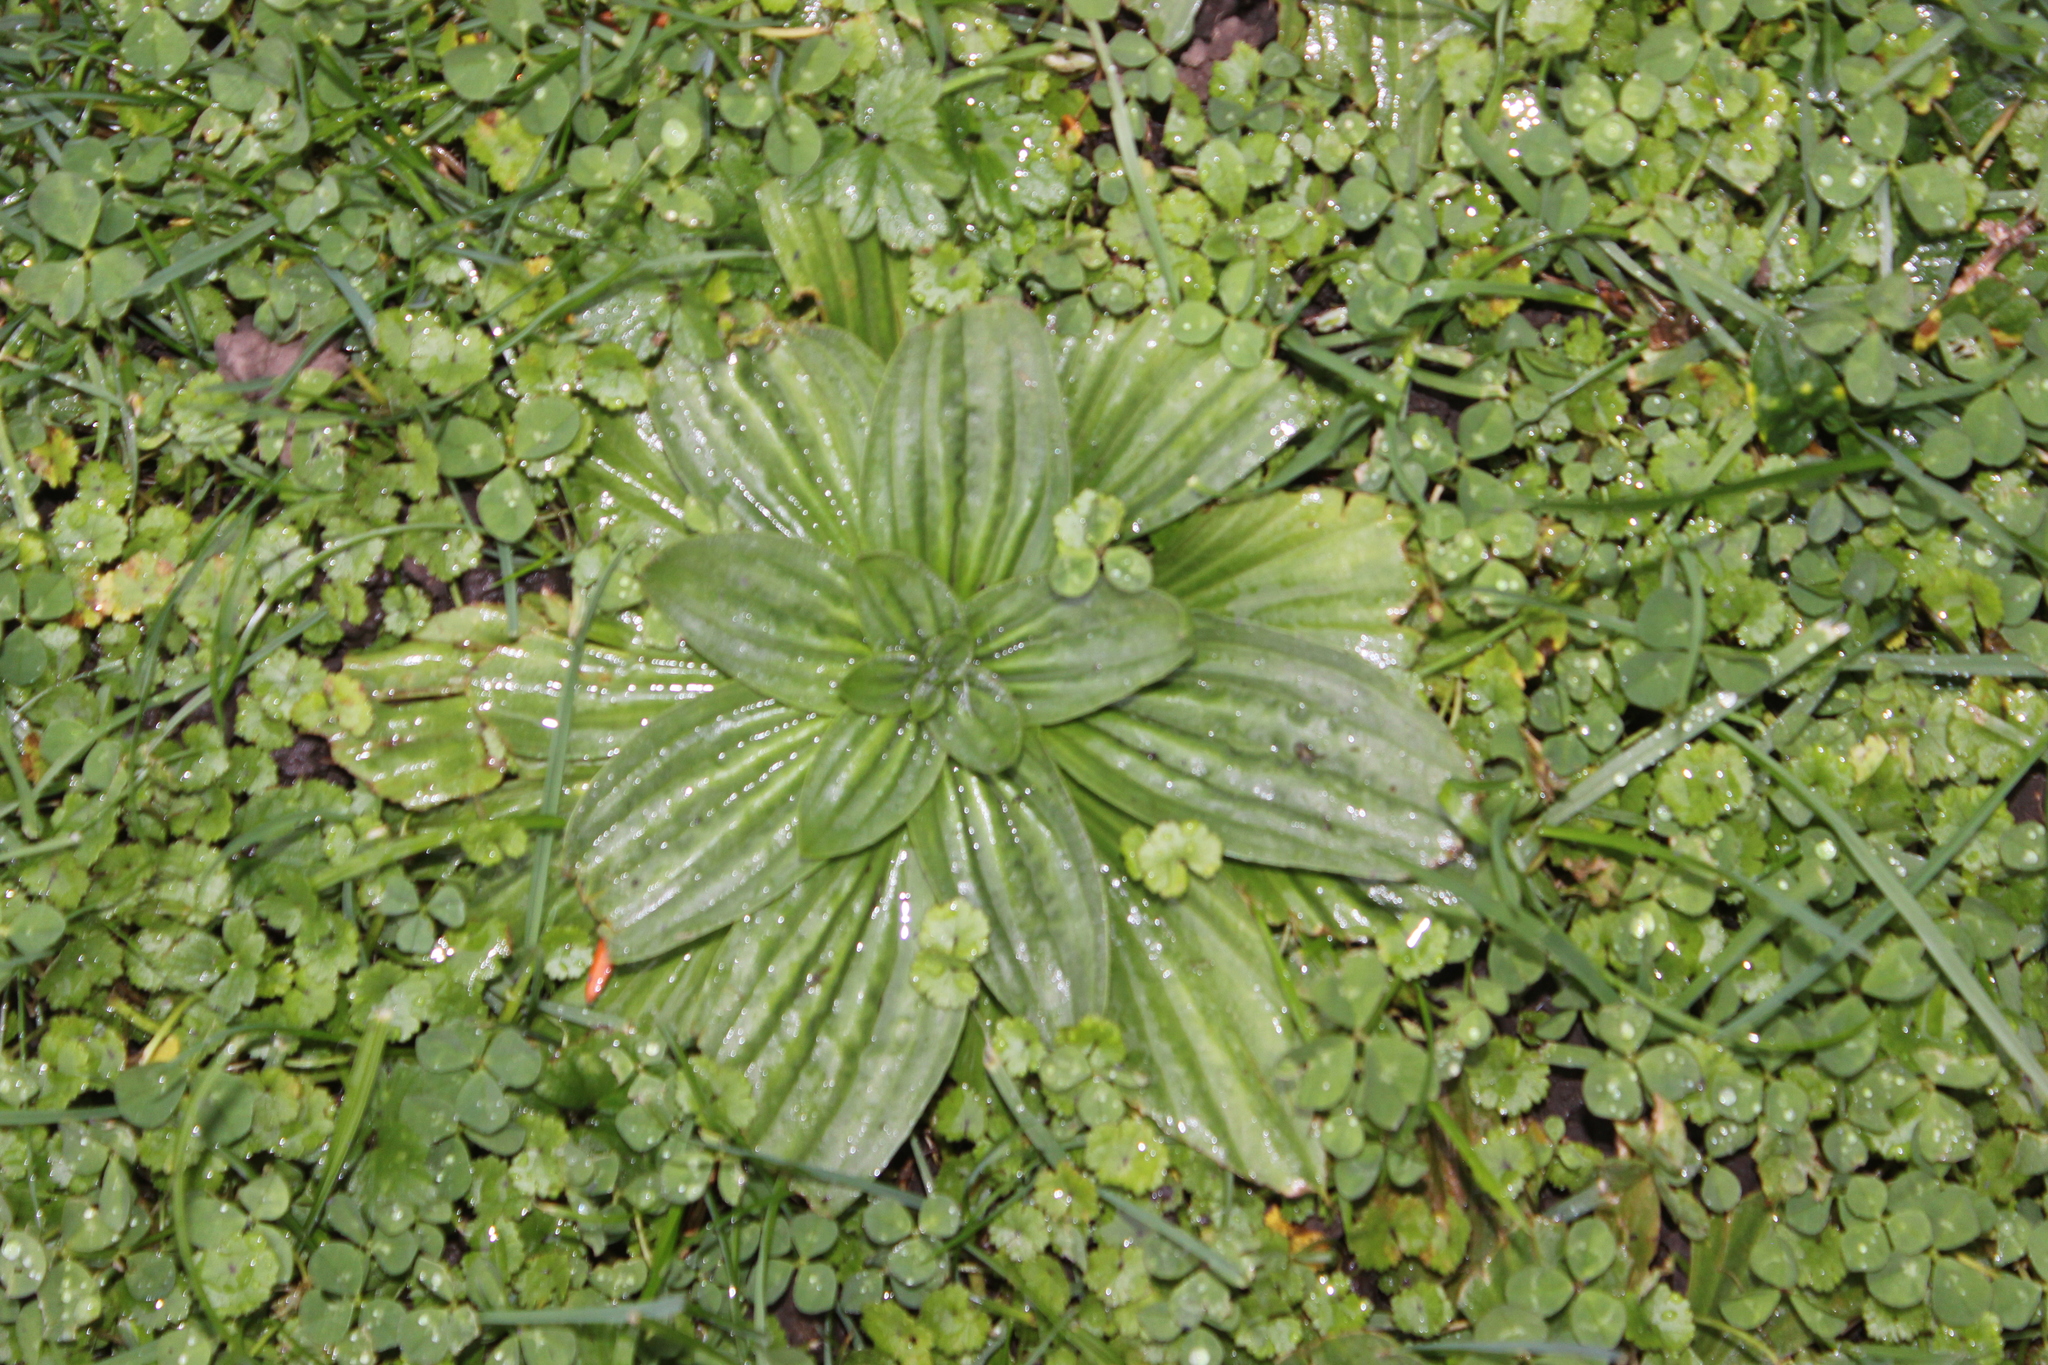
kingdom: Plantae
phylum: Tracheophyta
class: Magnoliopsida
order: Lamiales
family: Plantaginaceae
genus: Plantago
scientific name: Plantago australis
